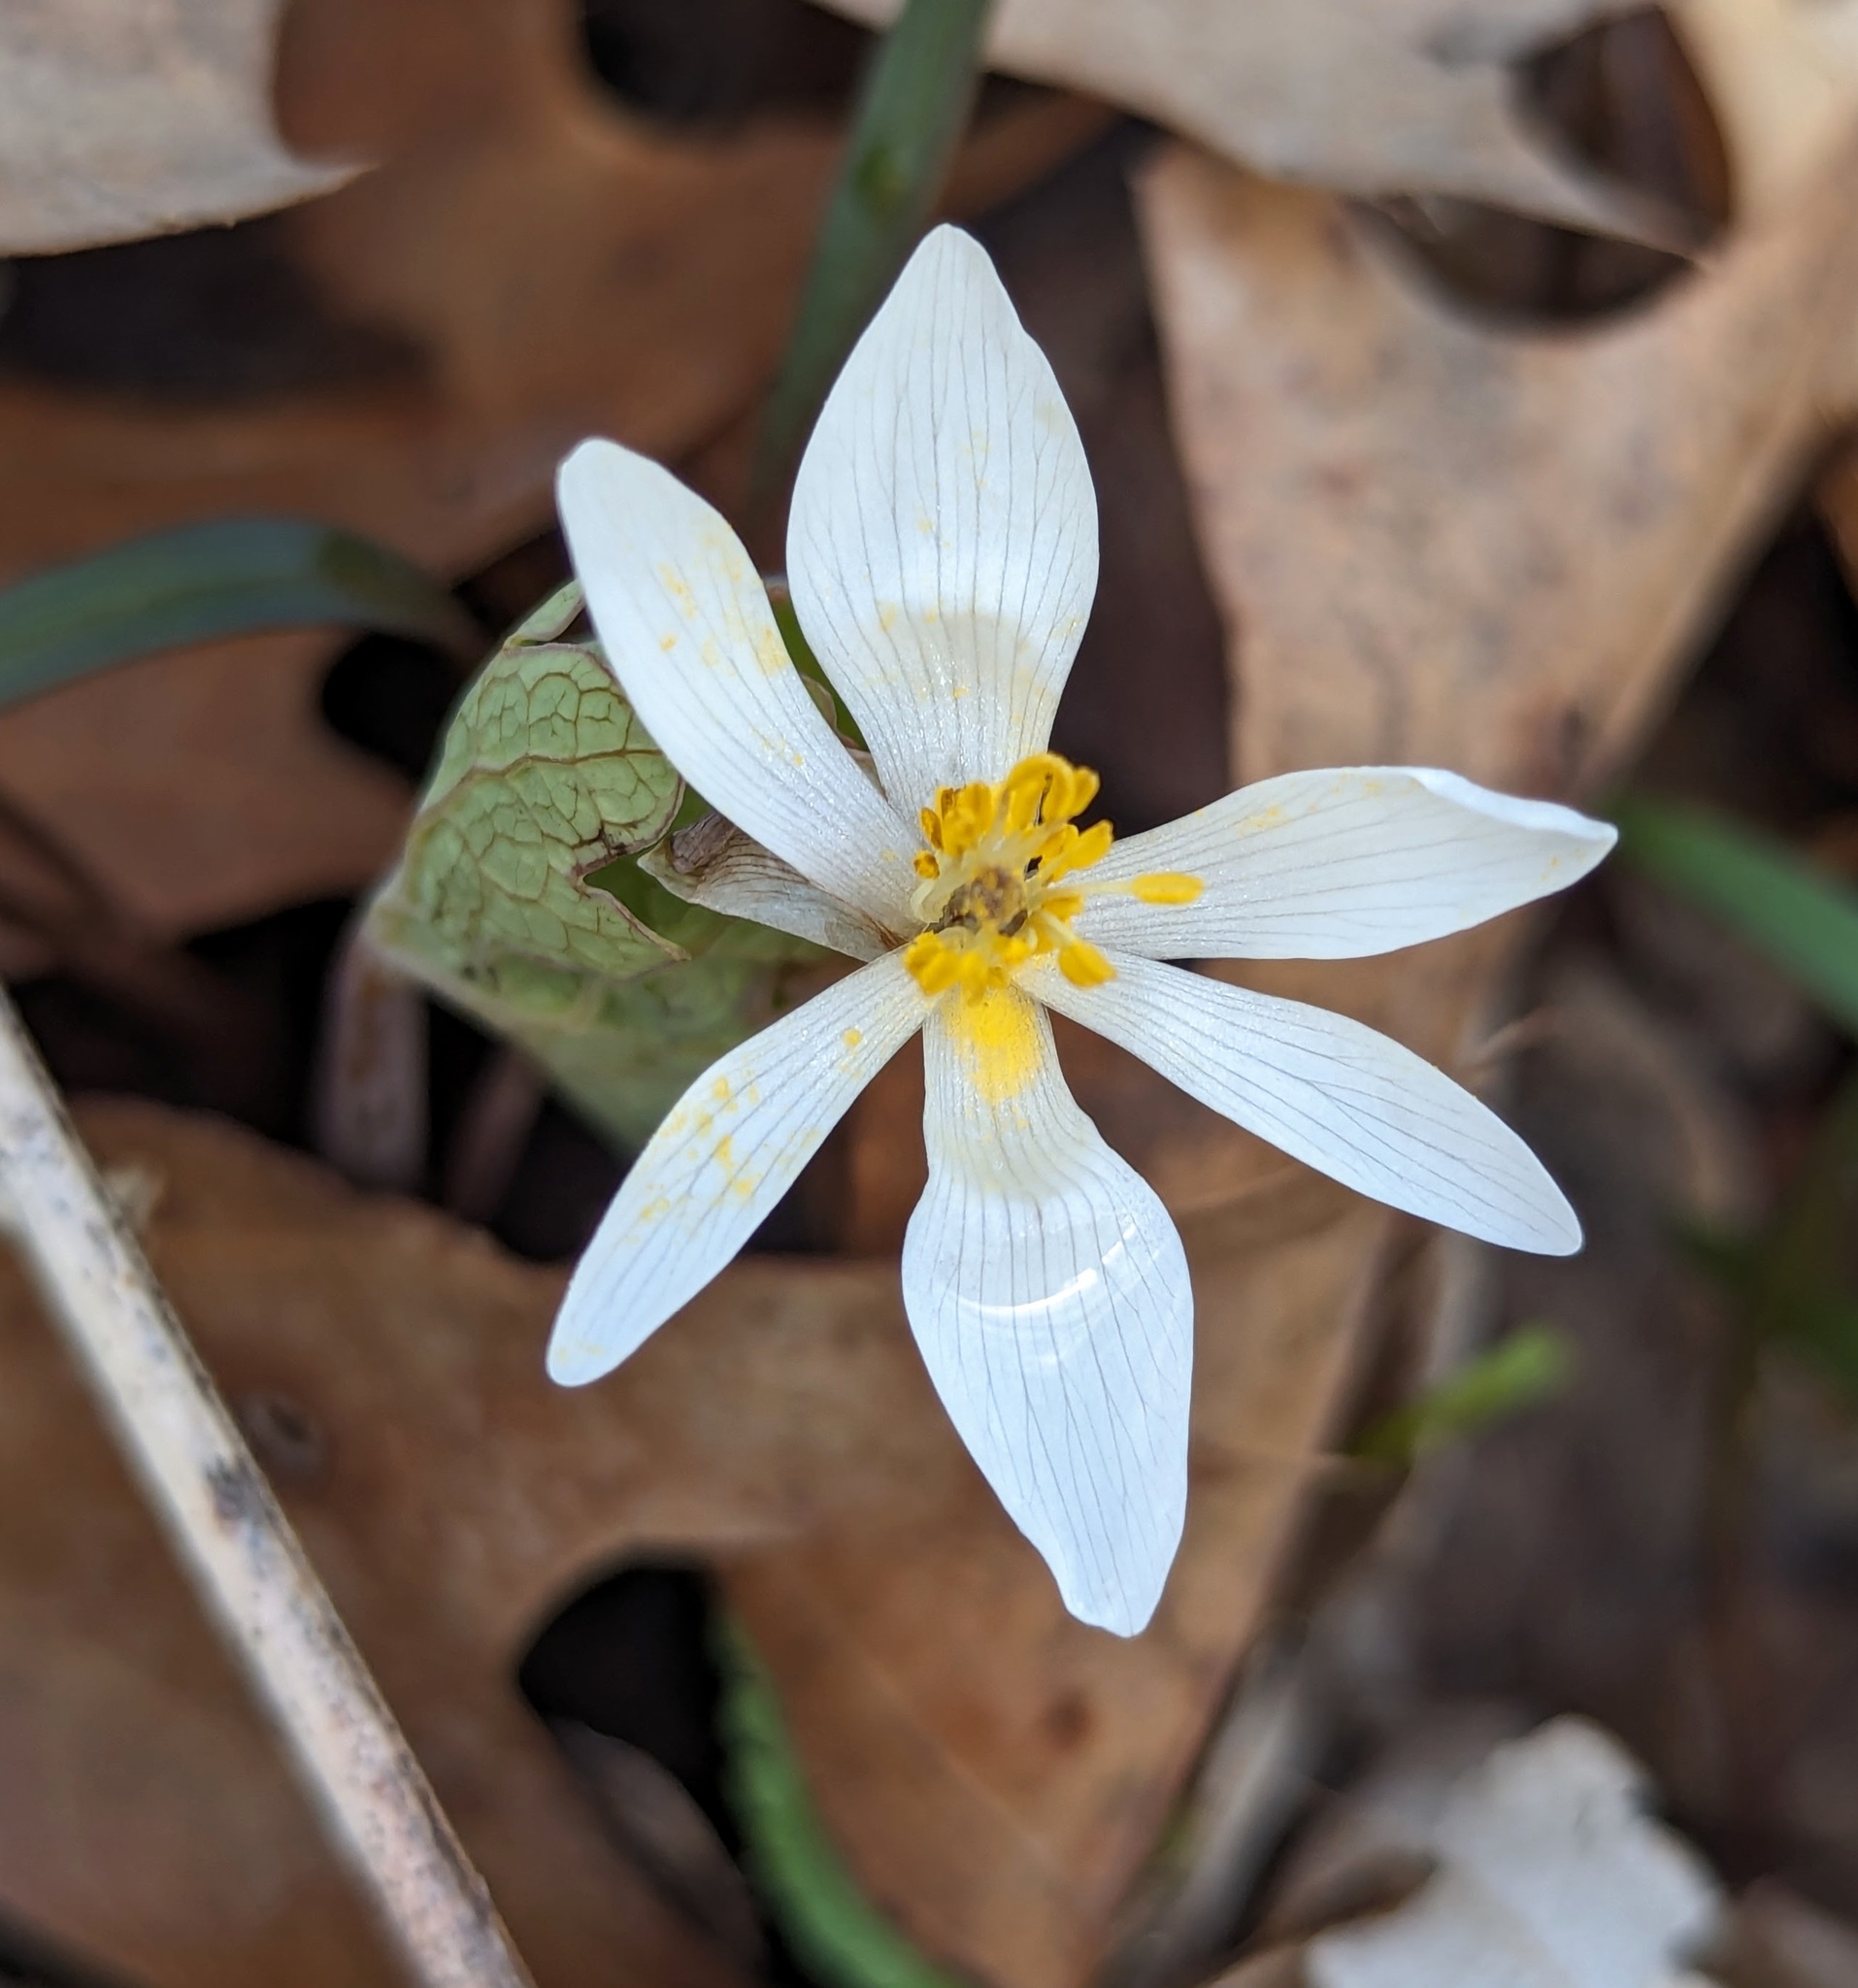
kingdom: Plantae
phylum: Tracheophyta
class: Magnoliopsida
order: Ranunculales
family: Papaveraceae
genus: Sanguinaria
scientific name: Sanguinaria canadensis
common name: Bloodroot
